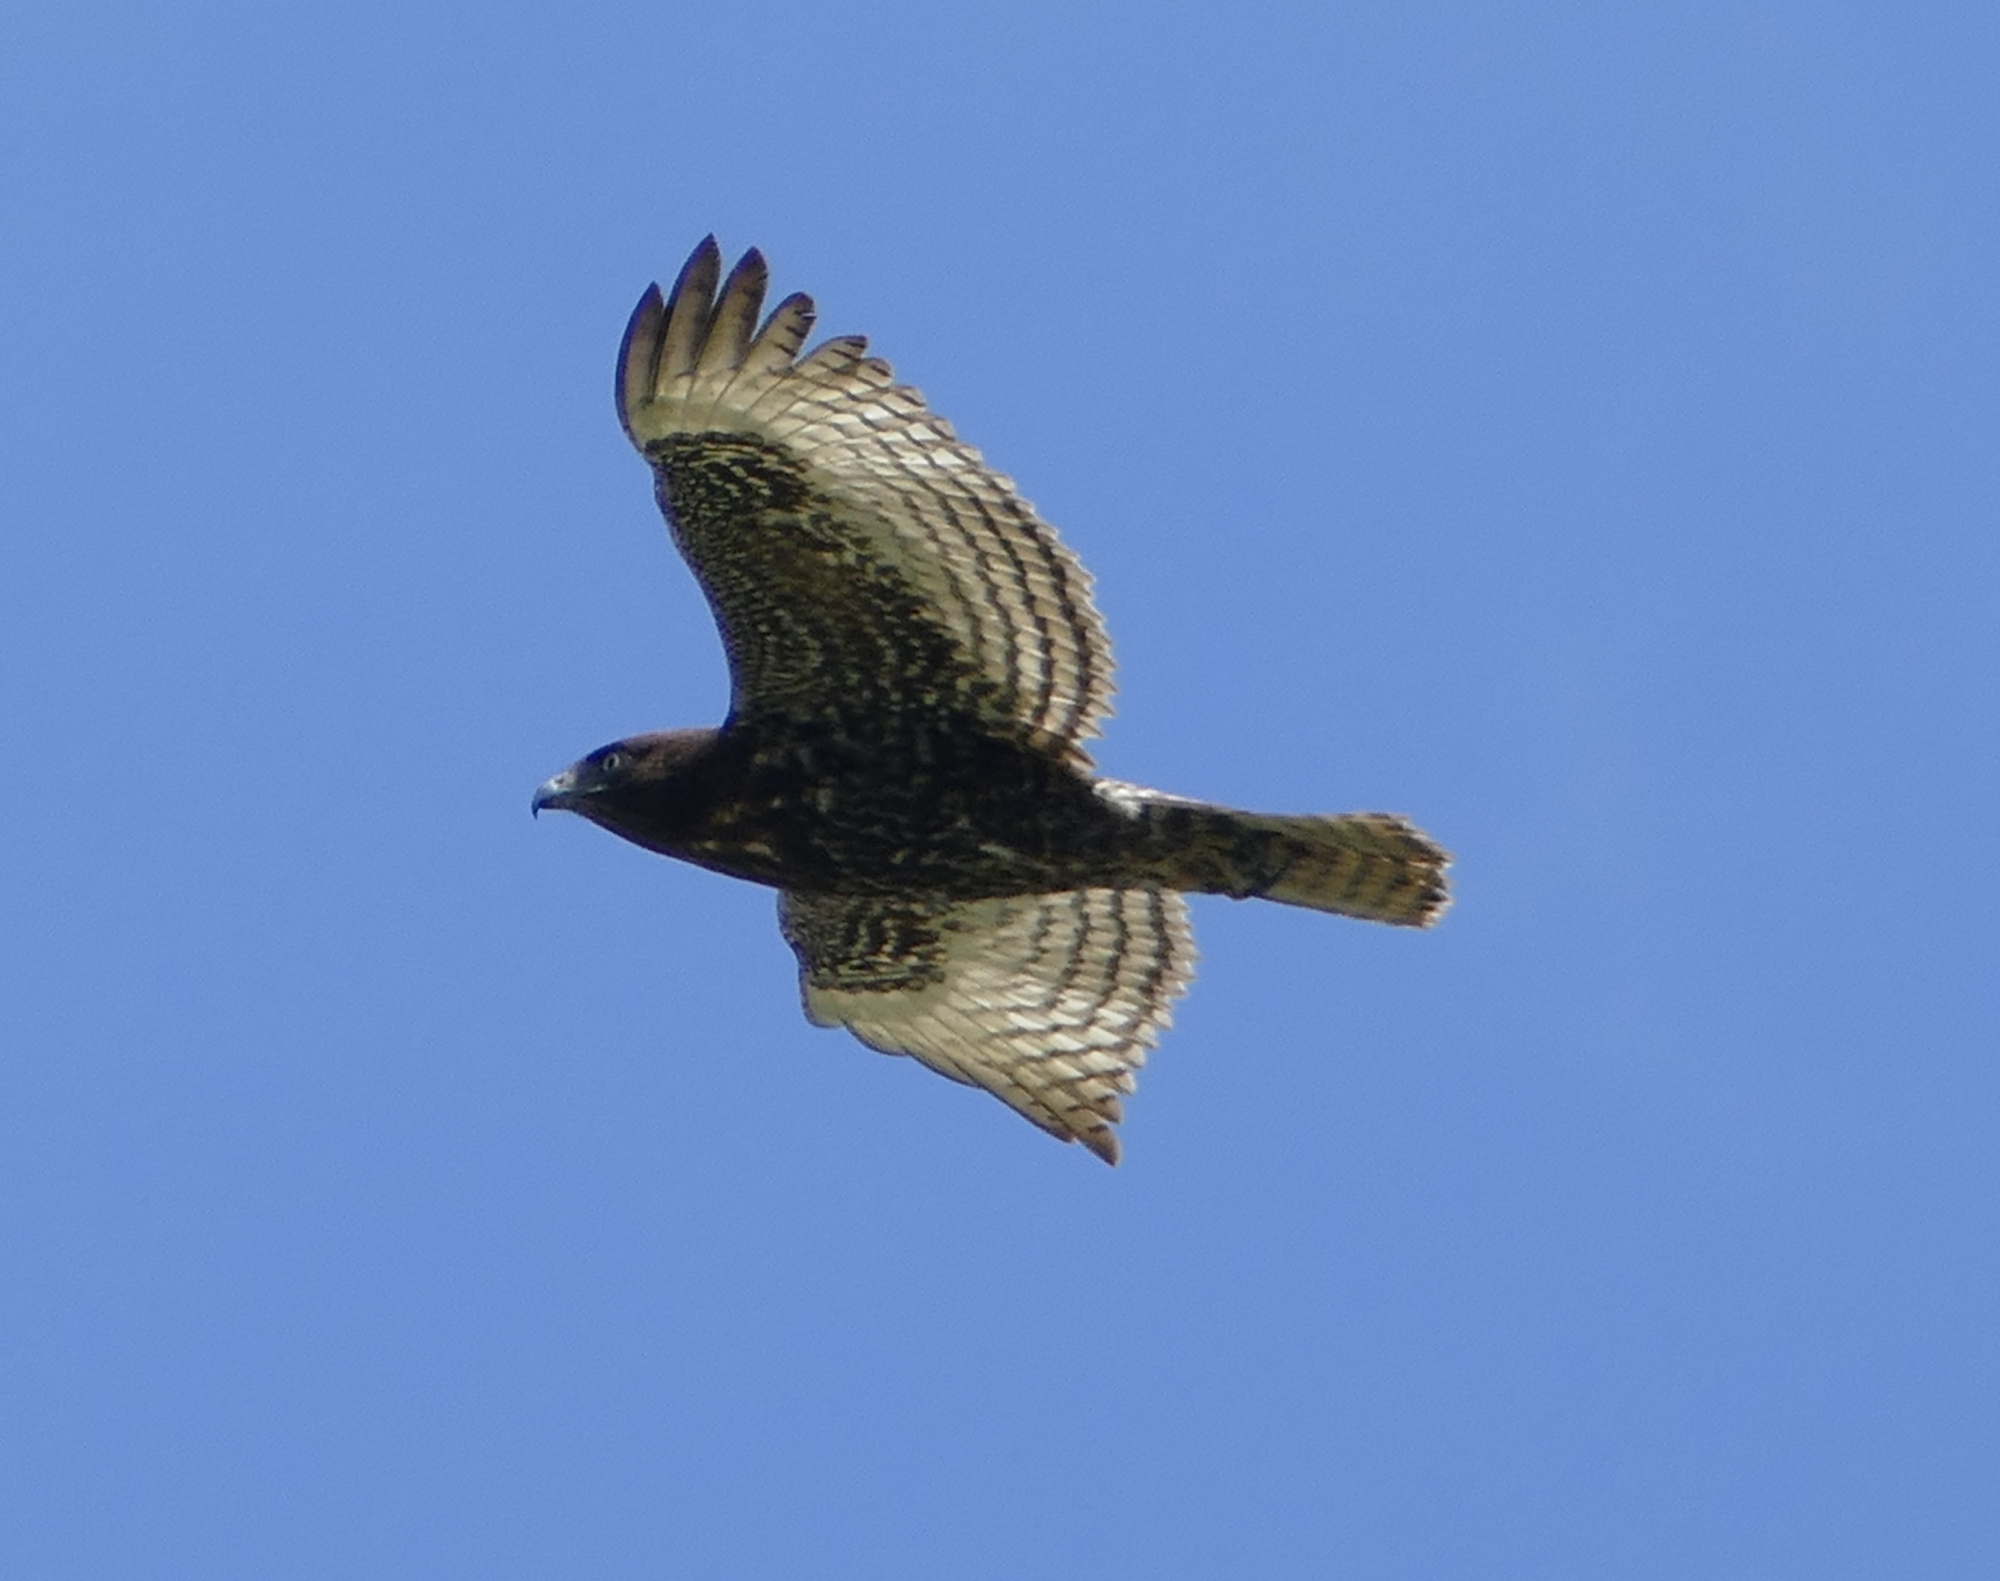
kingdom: Animalia
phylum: Chordata
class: Aves
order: Accipitriformes
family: Accipitridae
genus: Buteo
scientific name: Buteo jamaicensis
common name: Red-tailed hawk
